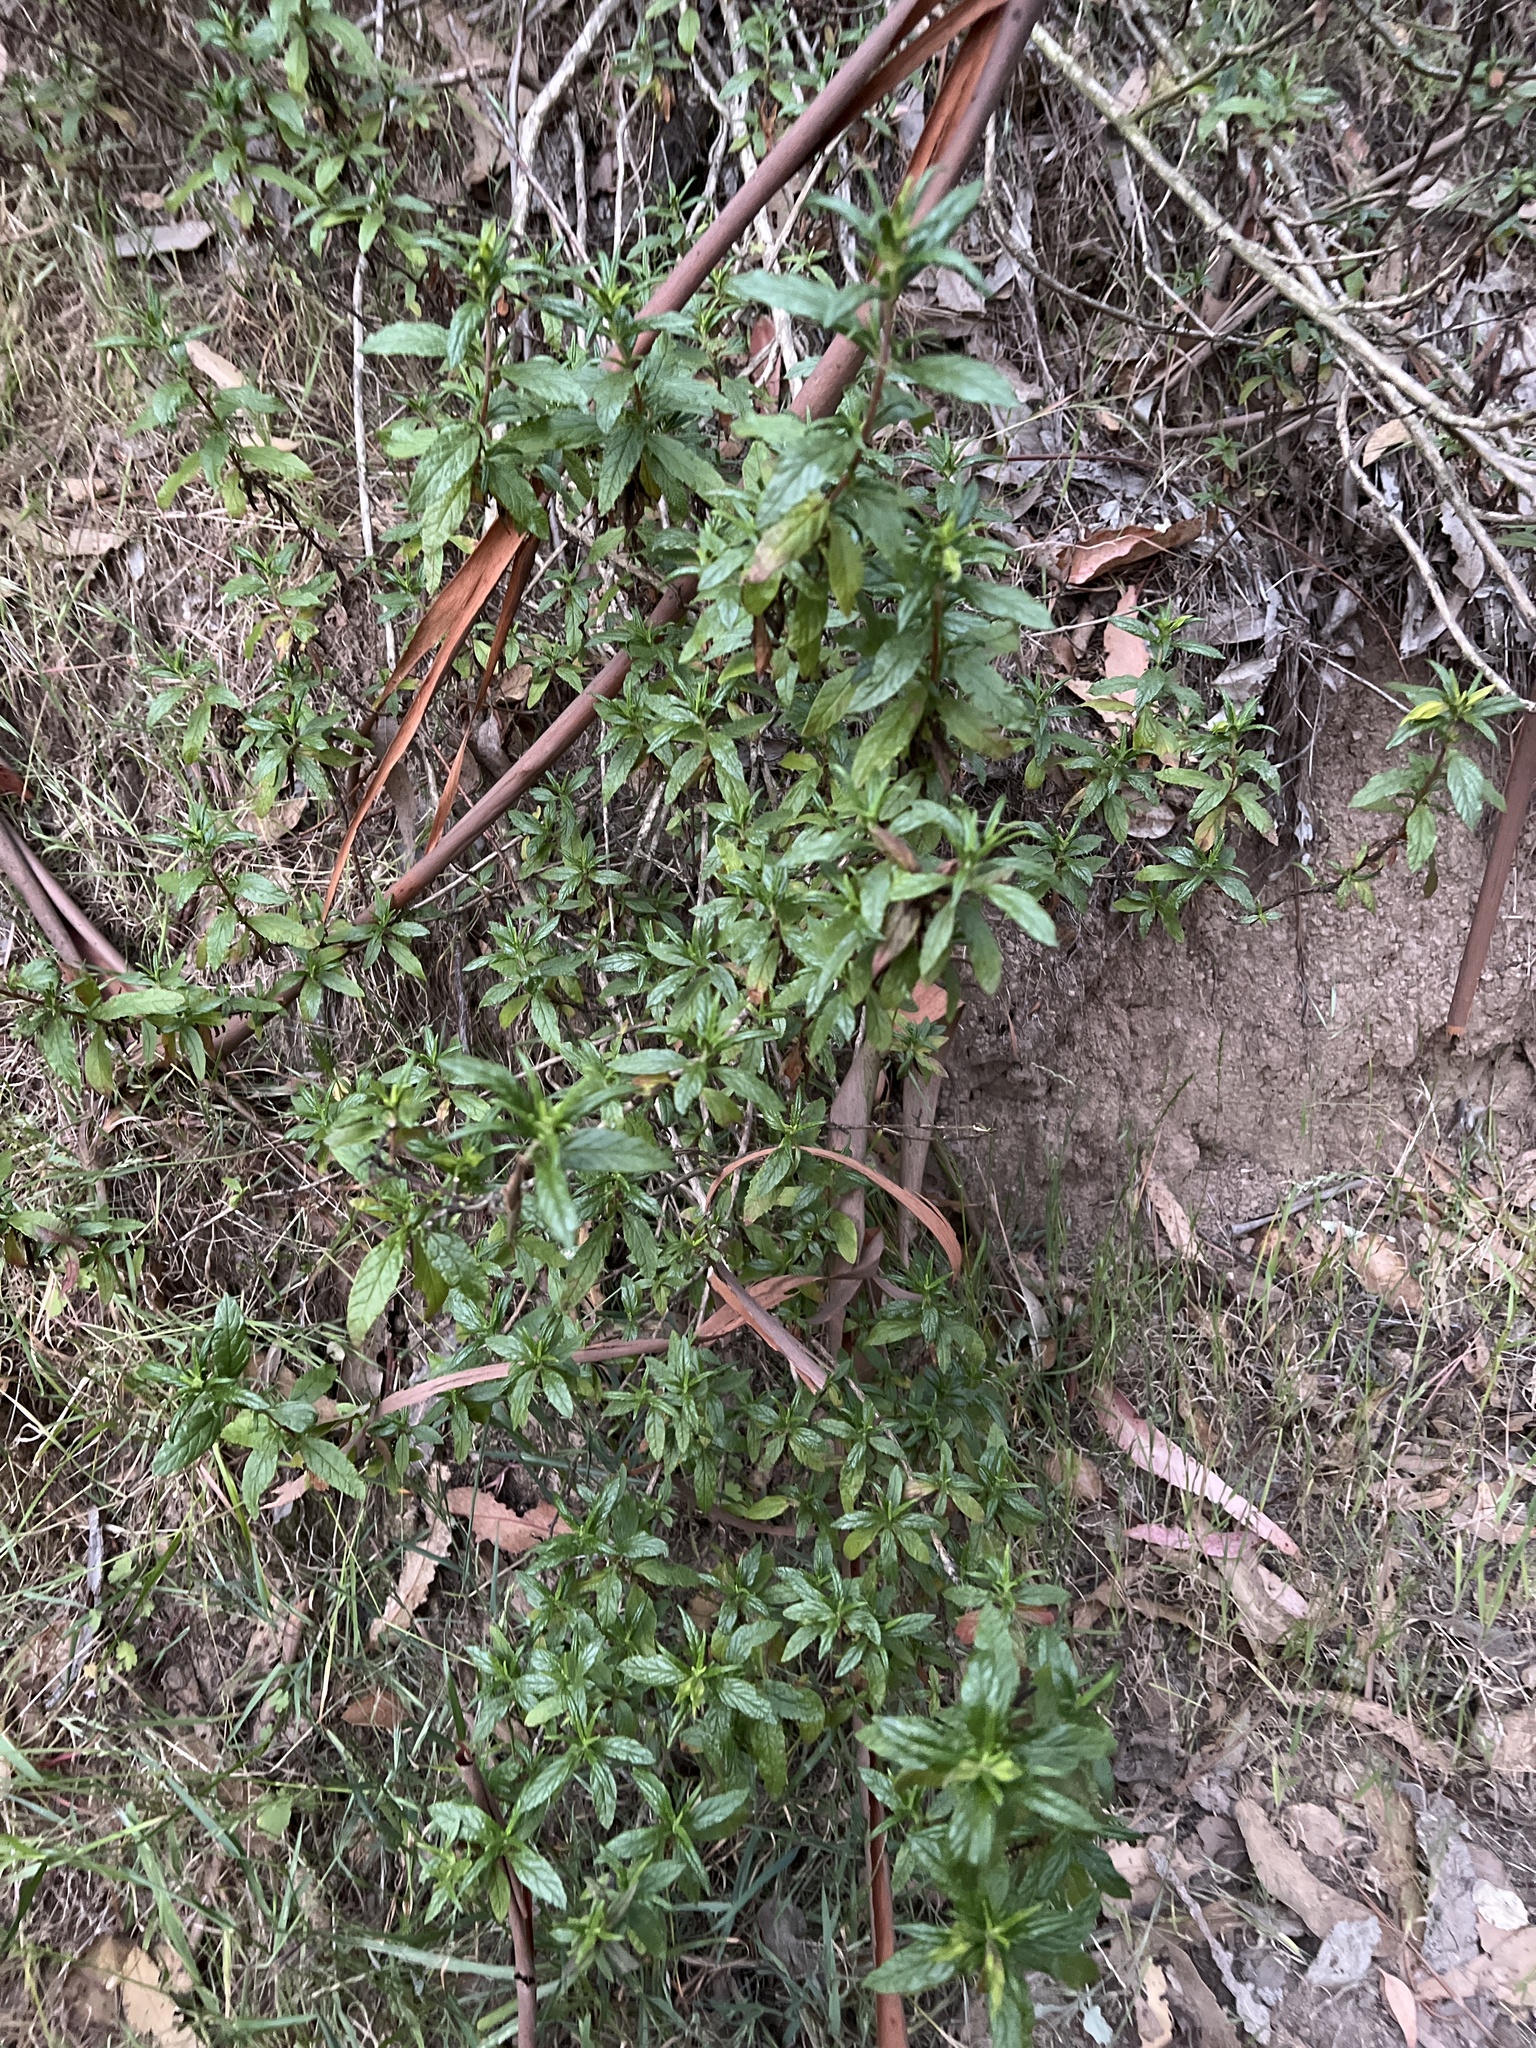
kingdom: Plantae
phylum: Tracheophyta
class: Magnoliopsida
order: Lamiales
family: Phrymaceae
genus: Diplacus
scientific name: Diplacus aurantiacus
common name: Bush monkey-flower
